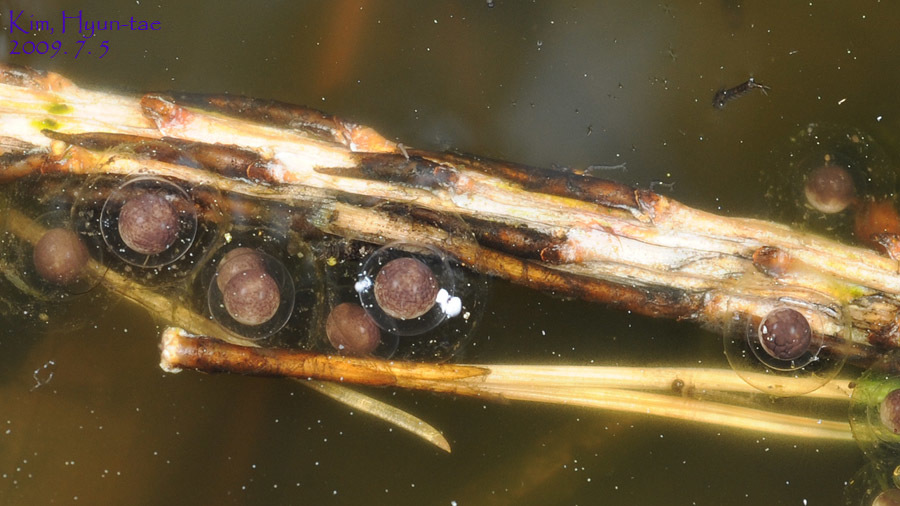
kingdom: Animalia
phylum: Chordata
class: Amphibia
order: Anura
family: Bombinatoridae
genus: Bombina
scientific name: Bombina orientalis
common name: Oriental firebelly toad
